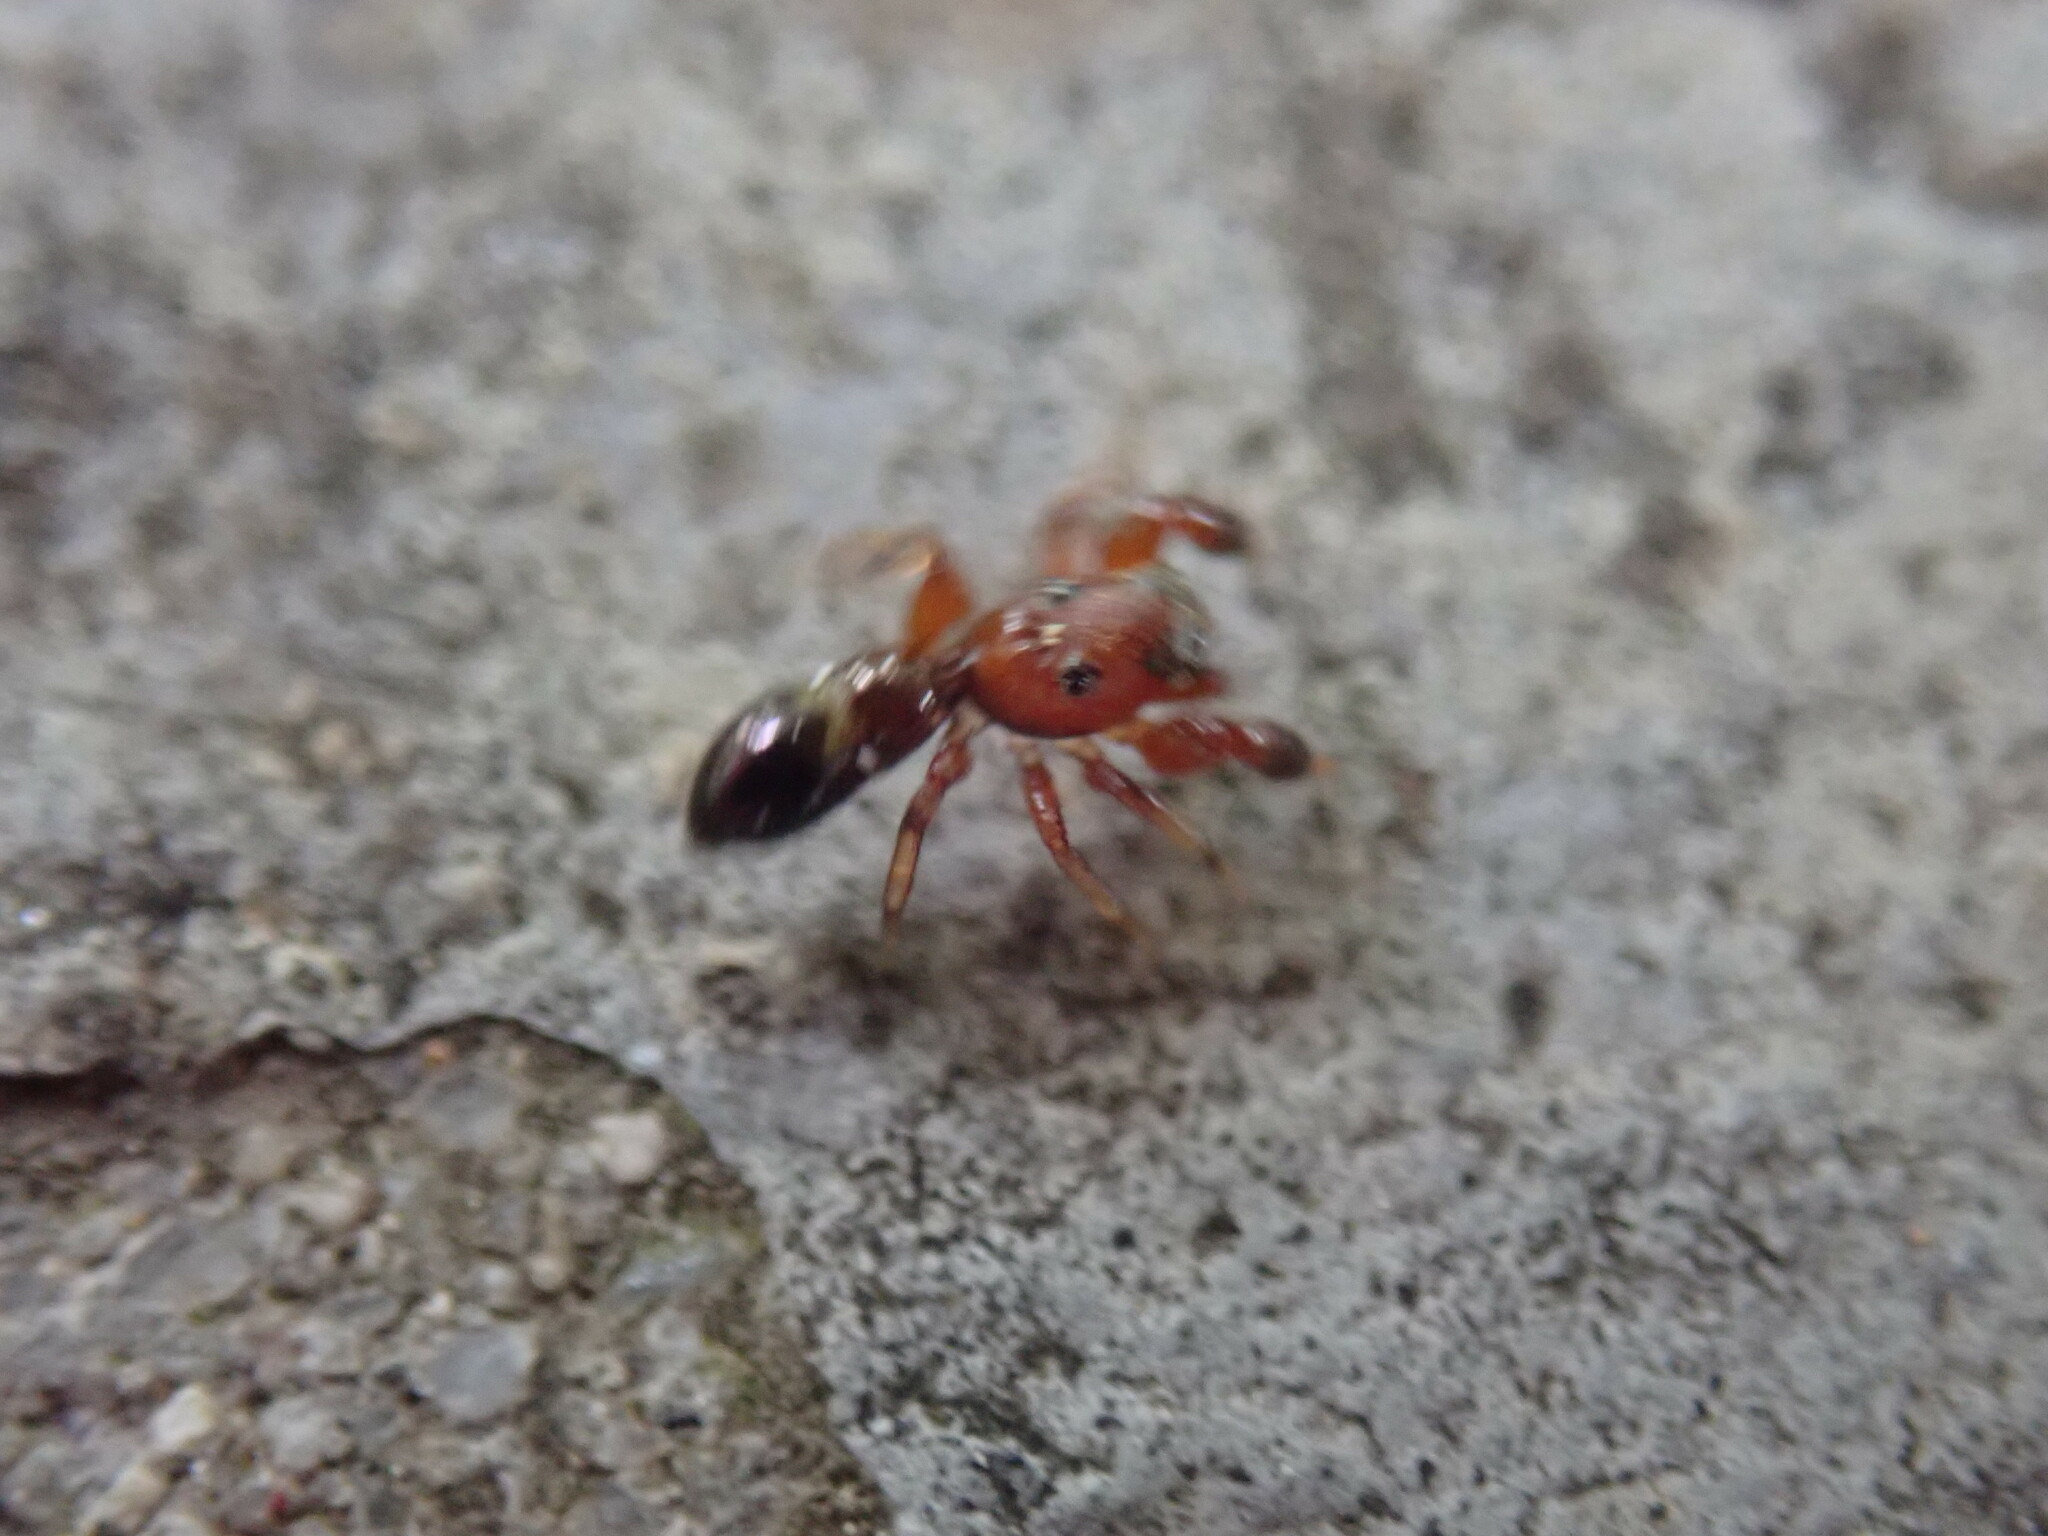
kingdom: Animalia
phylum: Arthropoda
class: Arachnida
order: Araneae
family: Salticidae
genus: Synageles
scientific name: Synageles dalmaticus
